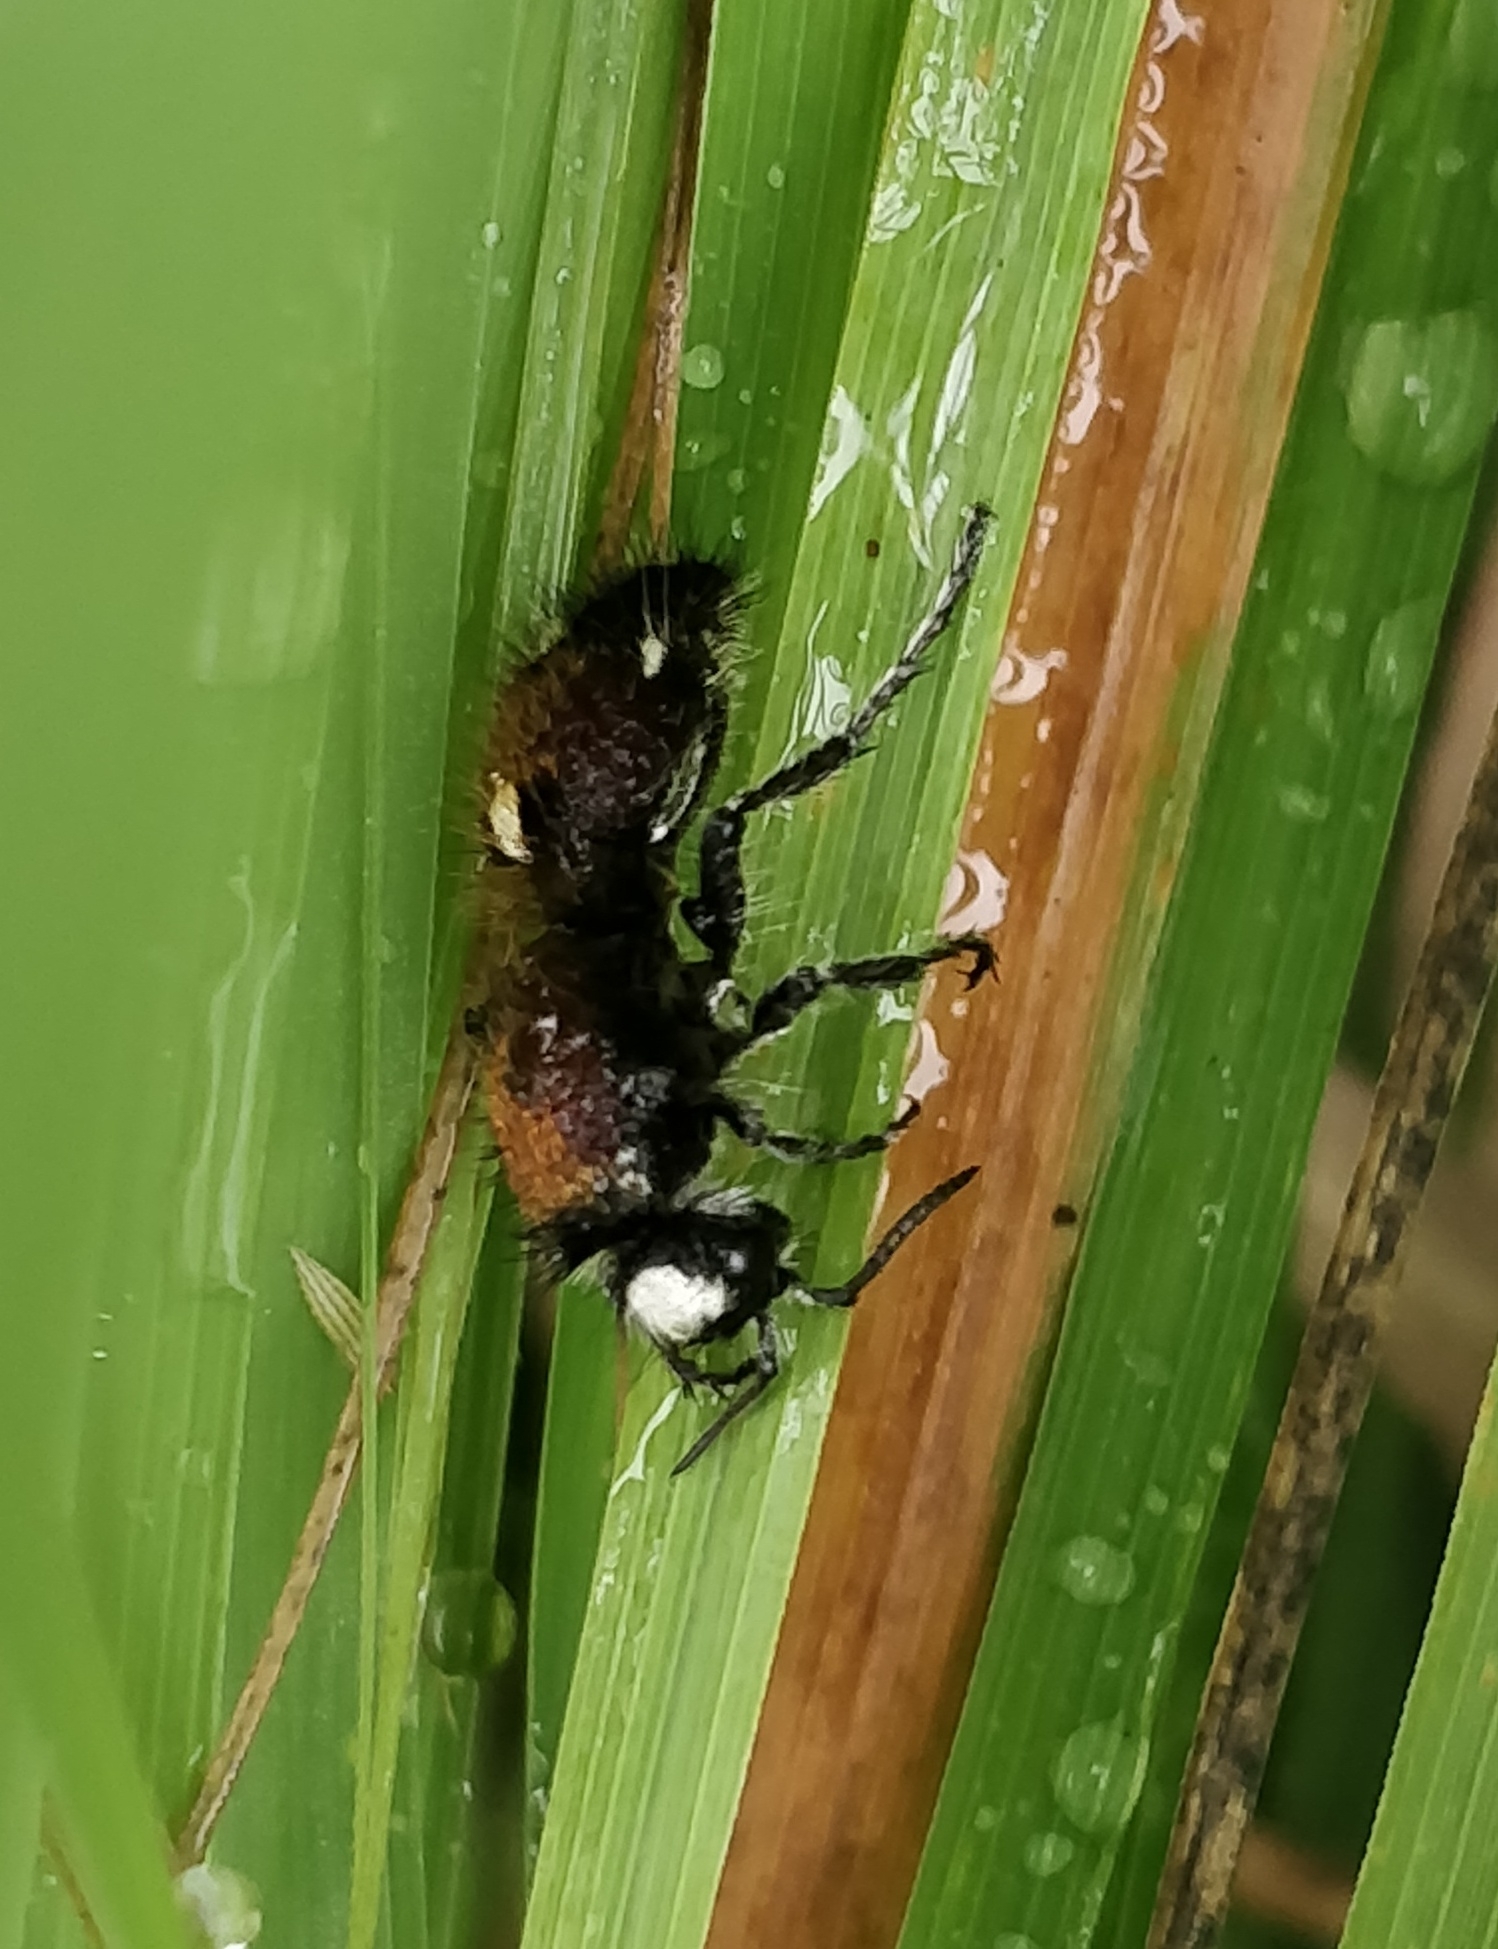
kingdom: Animalia
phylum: Arthropoda
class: Insecta
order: Hymenoptera
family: Mutillidae
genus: Dasylabris
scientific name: Dasylabris
